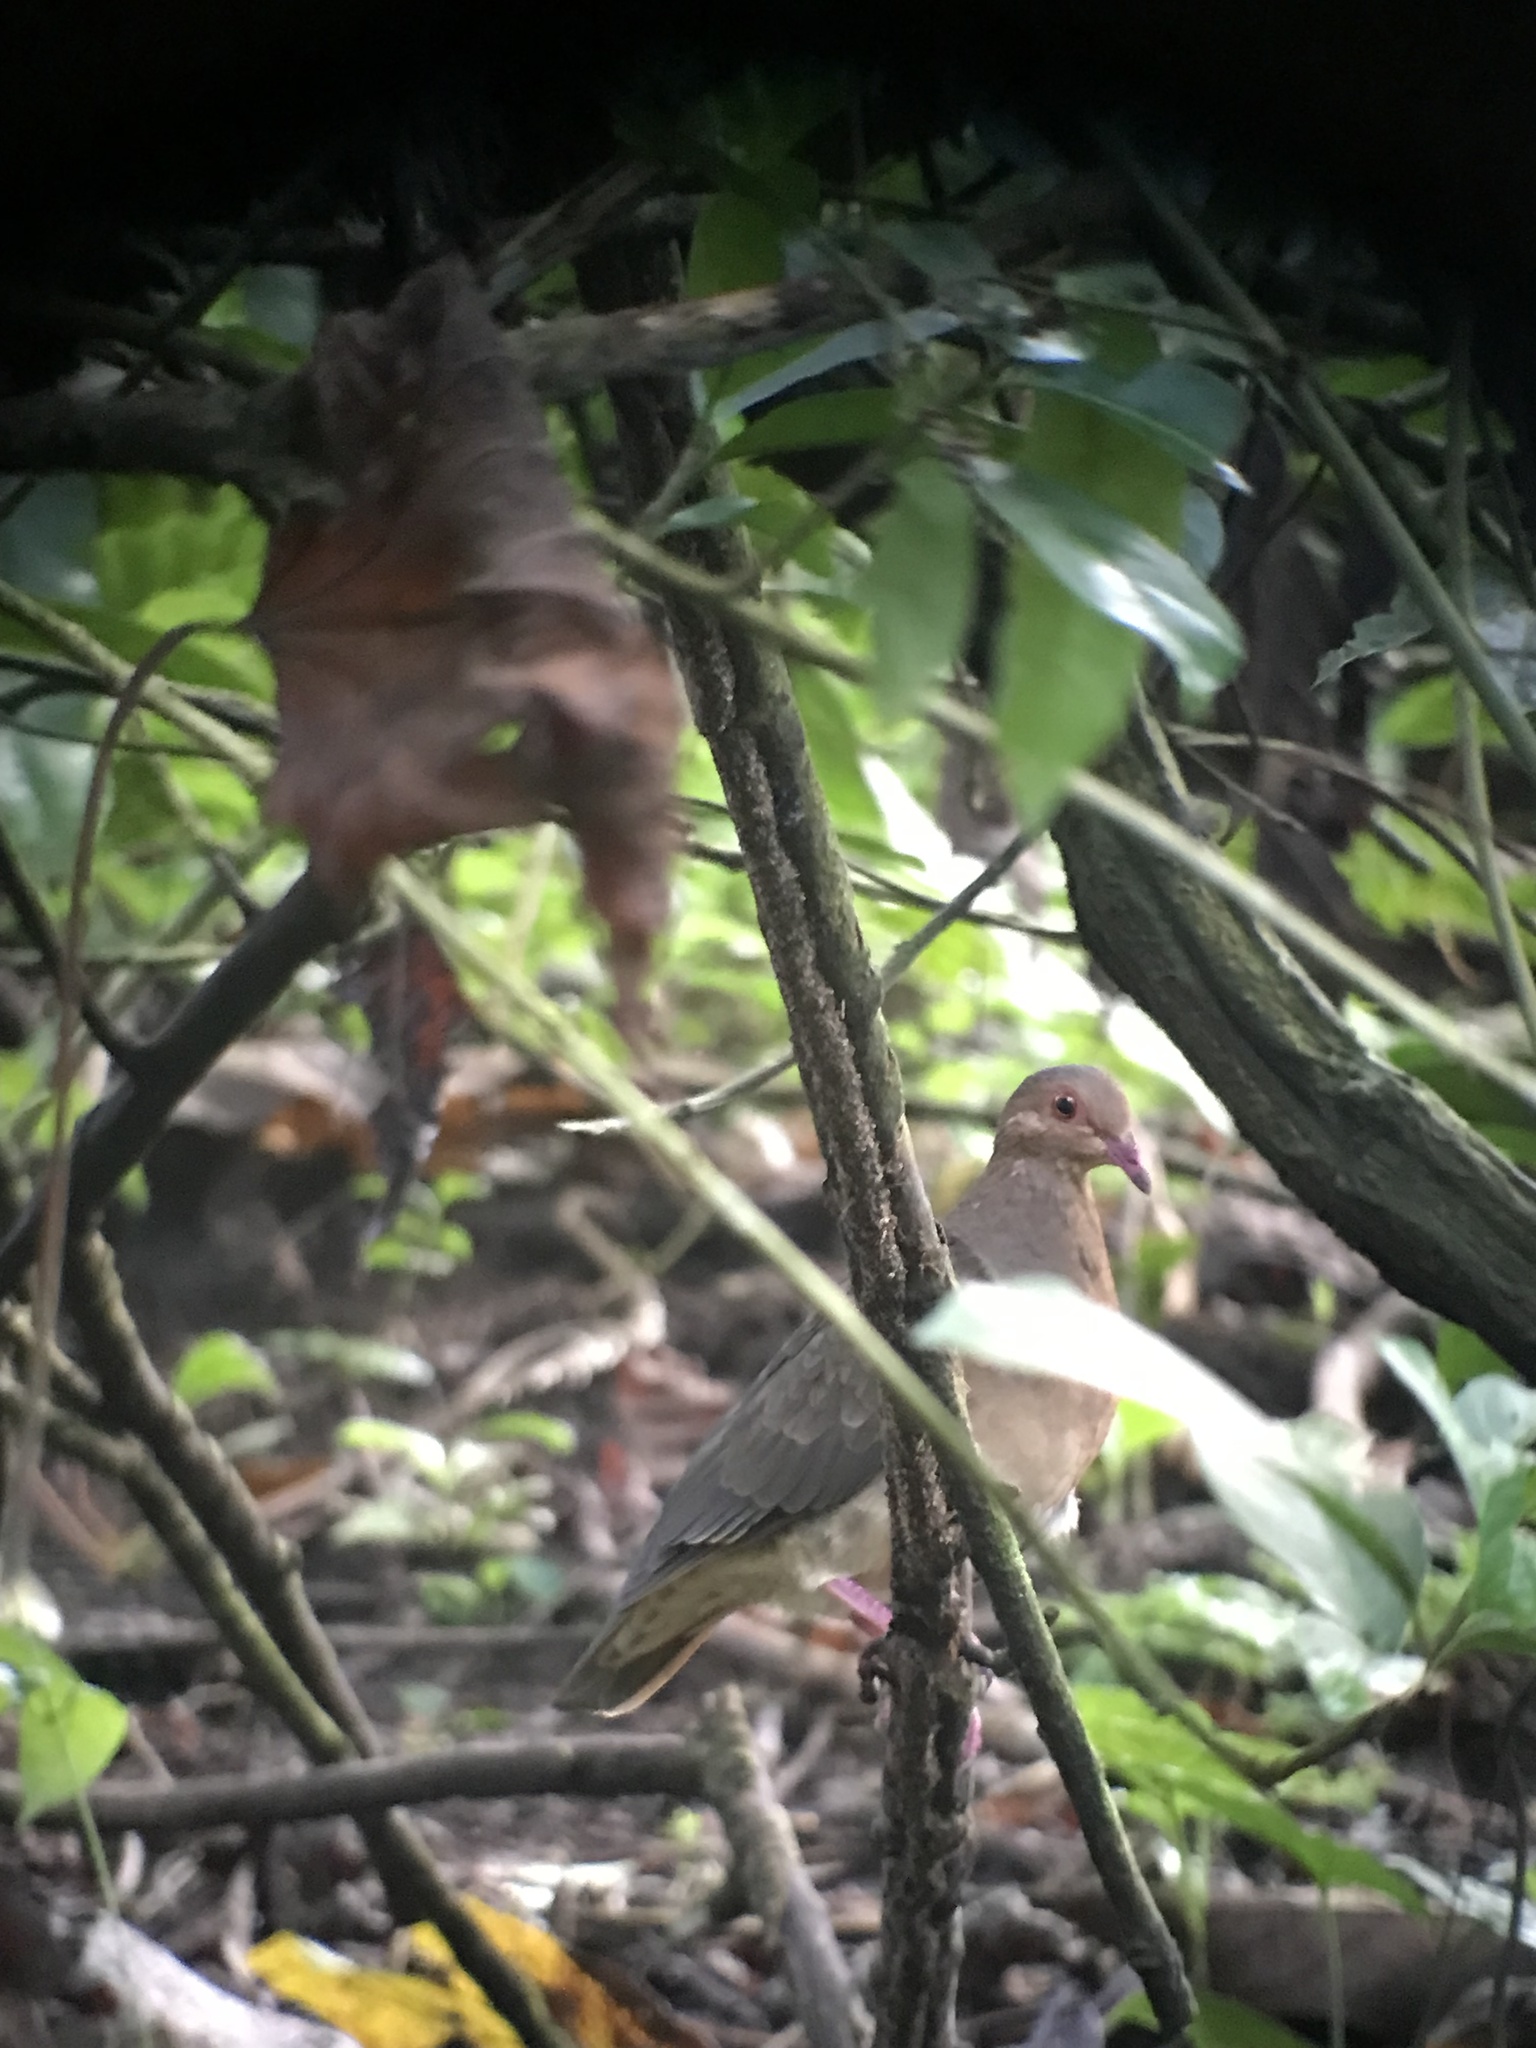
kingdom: Animalia
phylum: Chordata
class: Aves
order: Columbiformes
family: Columbidae
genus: Geotrygon
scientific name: Geotrygon montana
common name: Ruddy quail-dove
